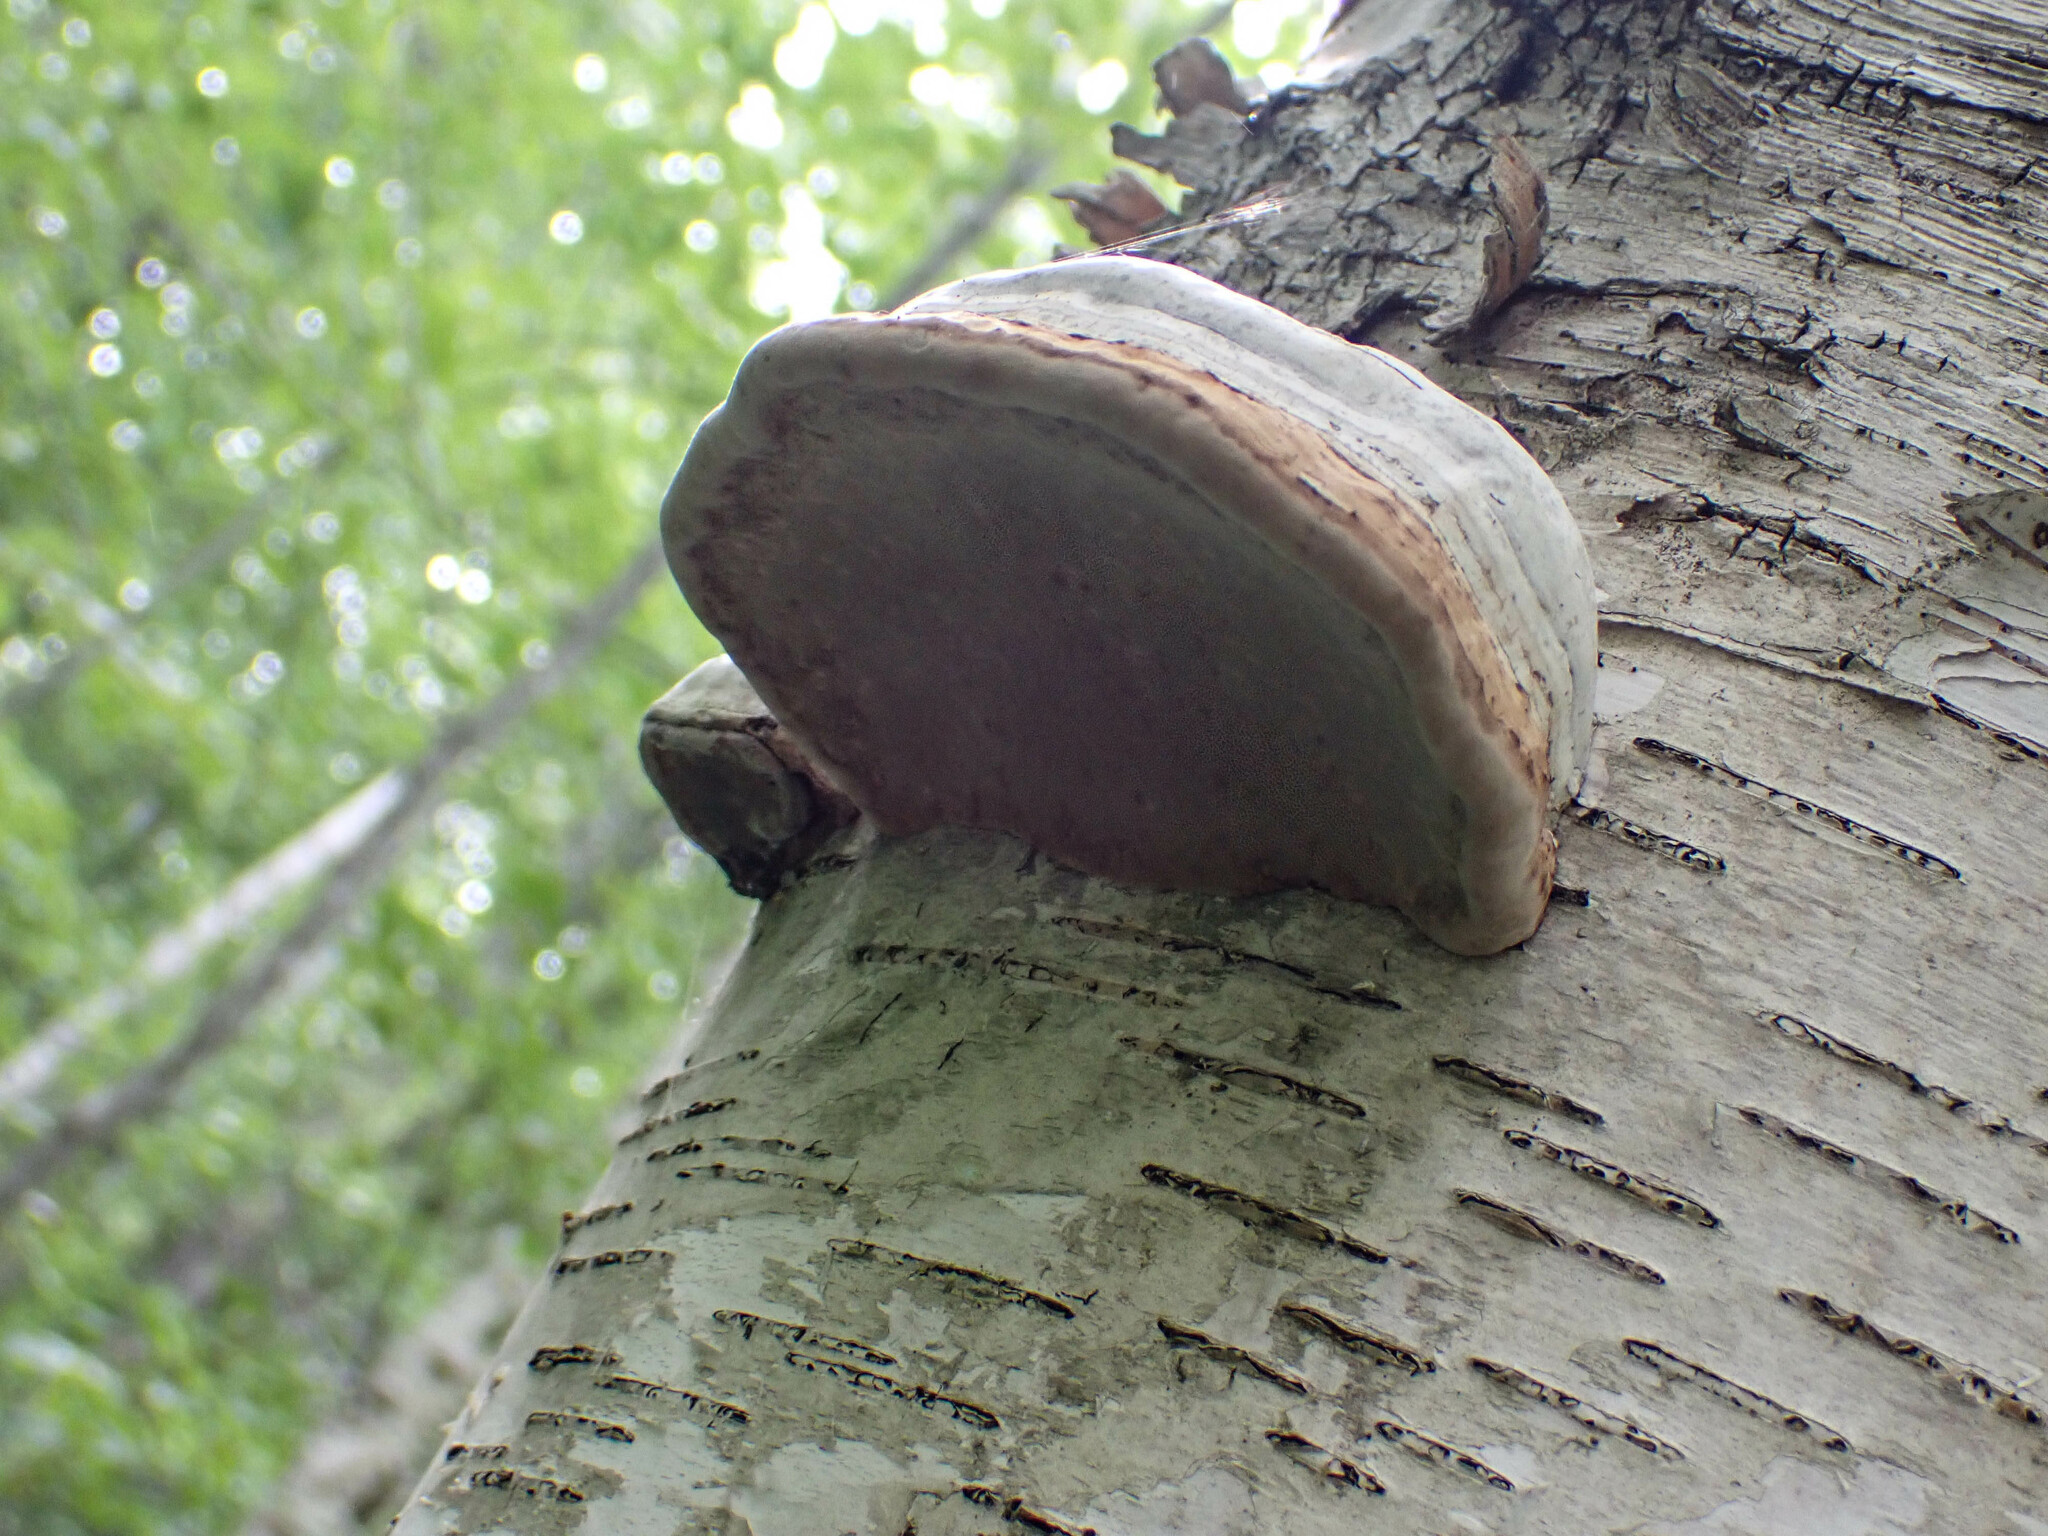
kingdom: Fungi
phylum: Basidiomycota
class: Agaricomycetes
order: Polyporales
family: Polyporaceae
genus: Fomes
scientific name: Fomes fomentarius
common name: Hoof fungus
